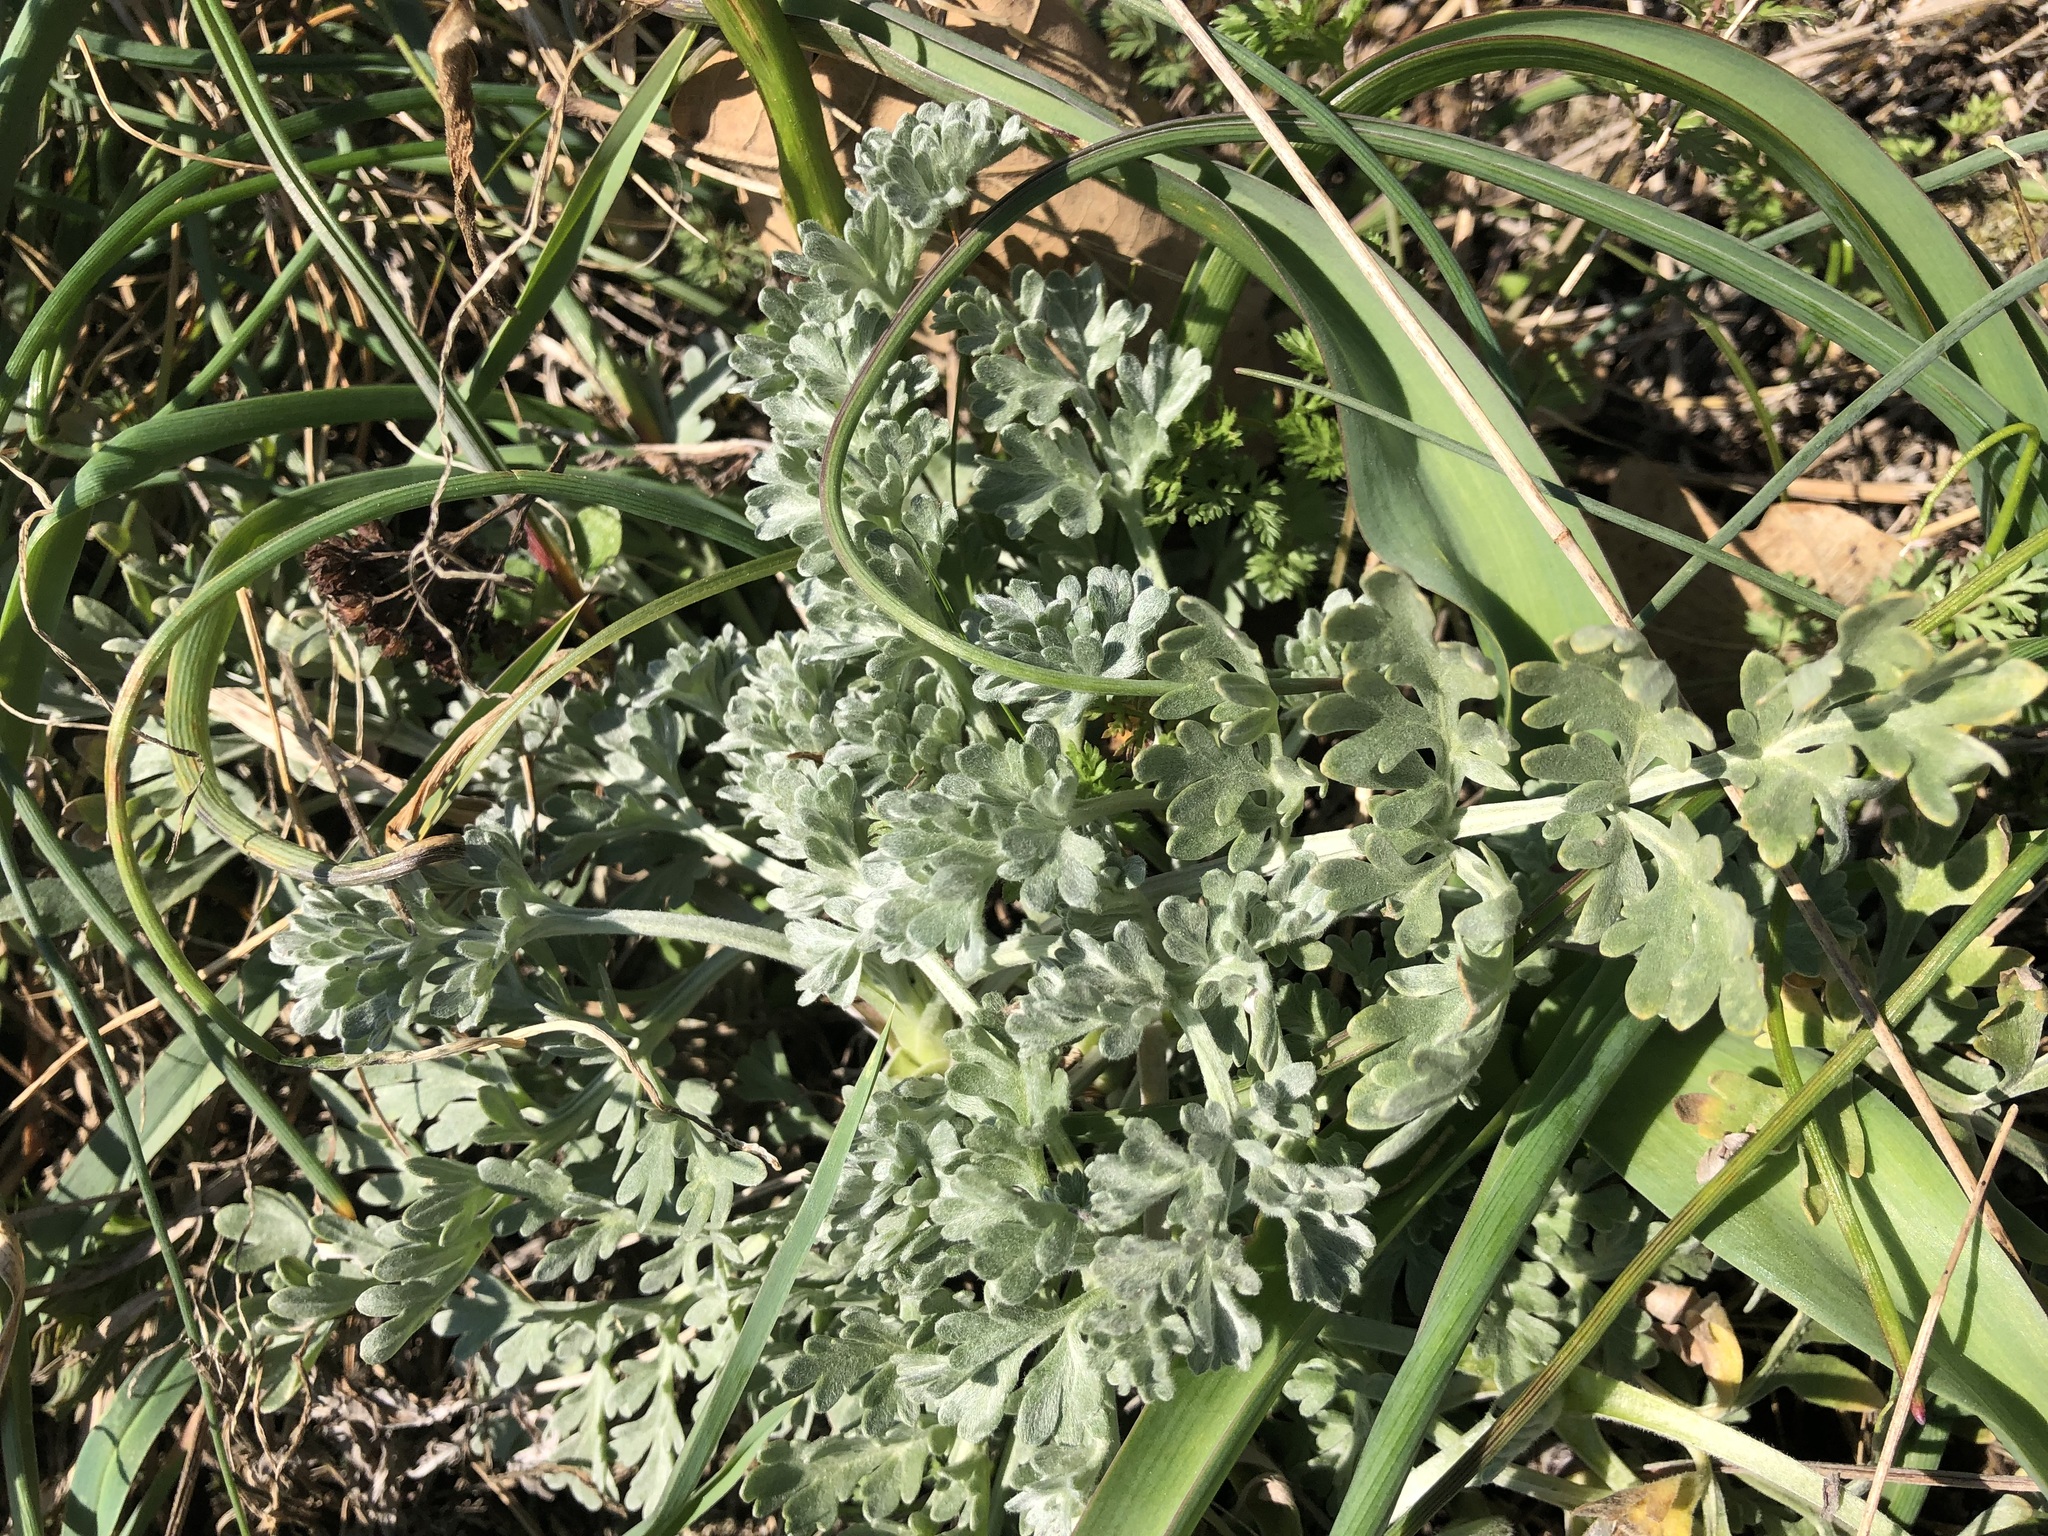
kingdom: Plantae
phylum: Tracheophyta
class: Magnoliopsida
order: Asterales
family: Asteraceae
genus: Artemisia
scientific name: Artemisia absinthium
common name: Wormwood
